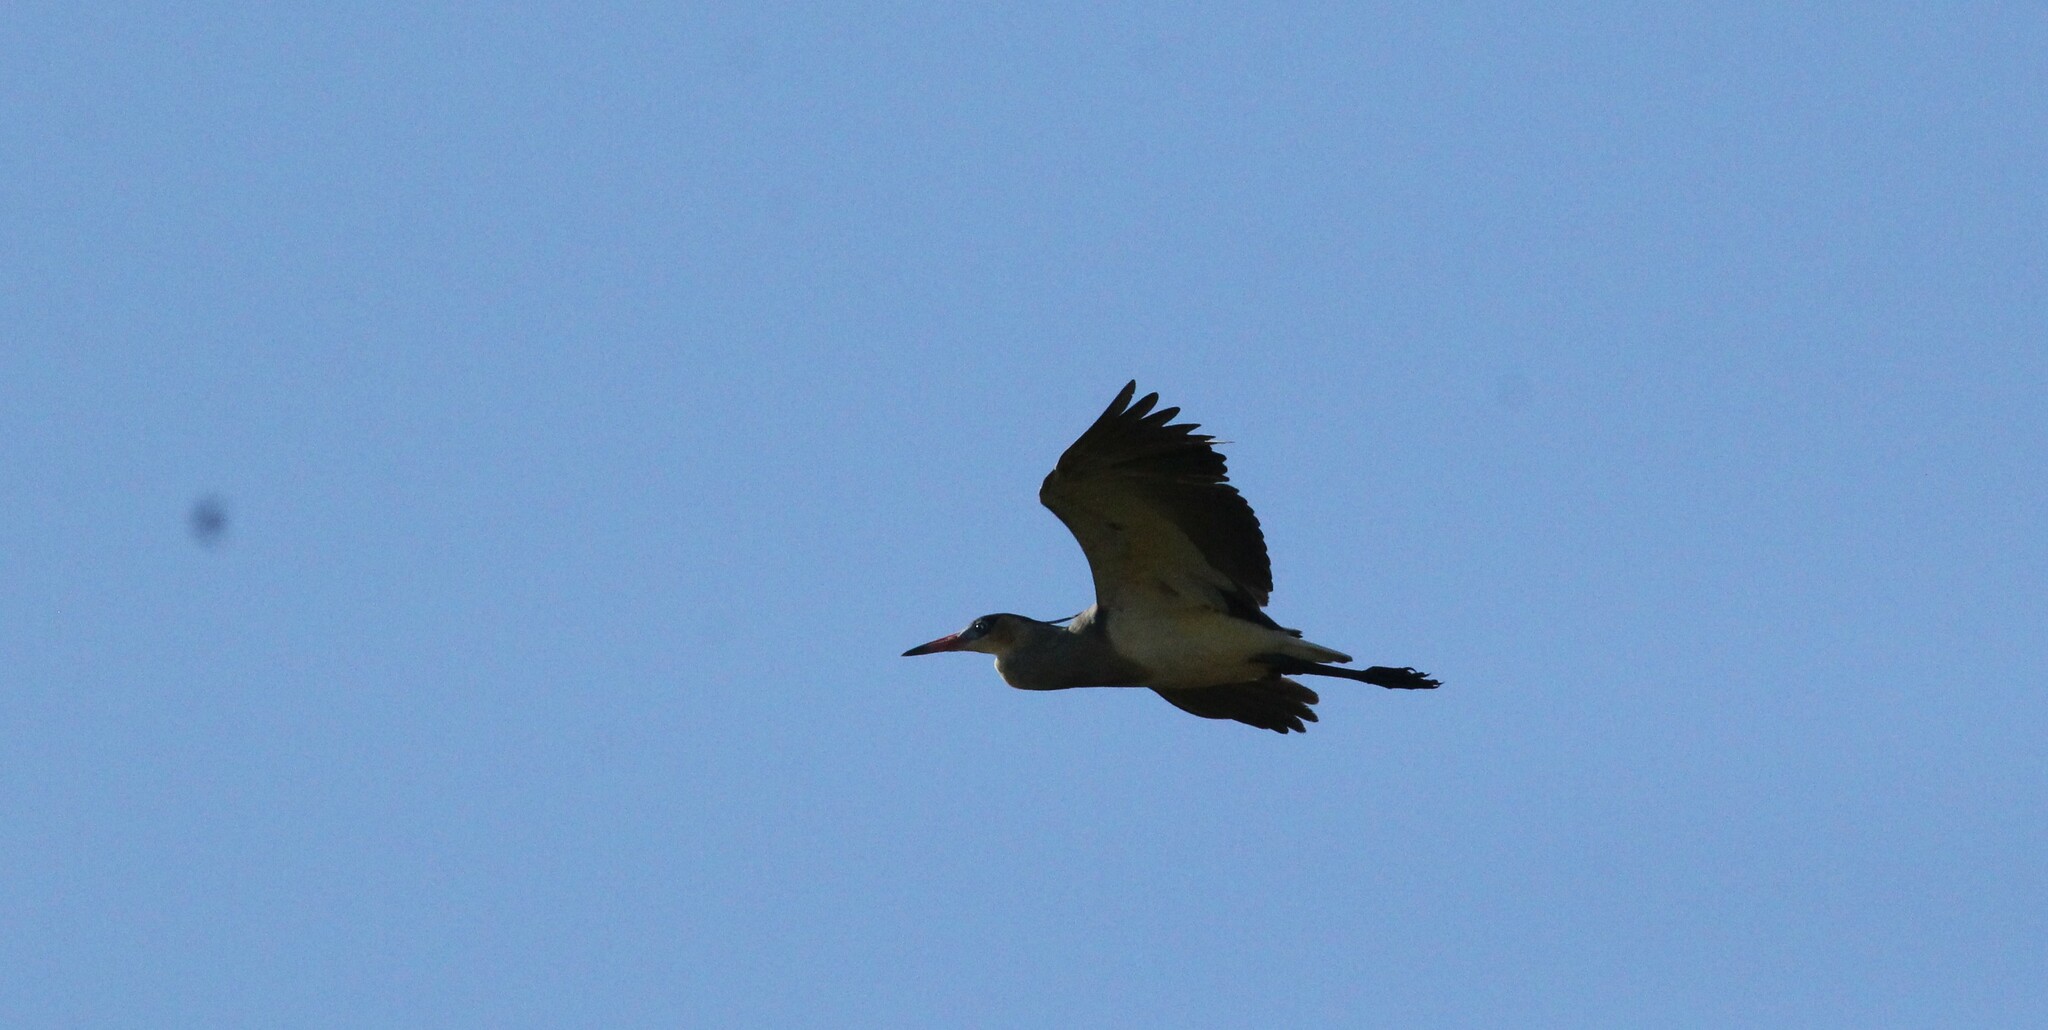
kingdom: Animalia
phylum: Chordata
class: Aves
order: Pelecaniformes
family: Ardeidae
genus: Syrigma
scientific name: Syrigma sibilatrix
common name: Whistling heron
